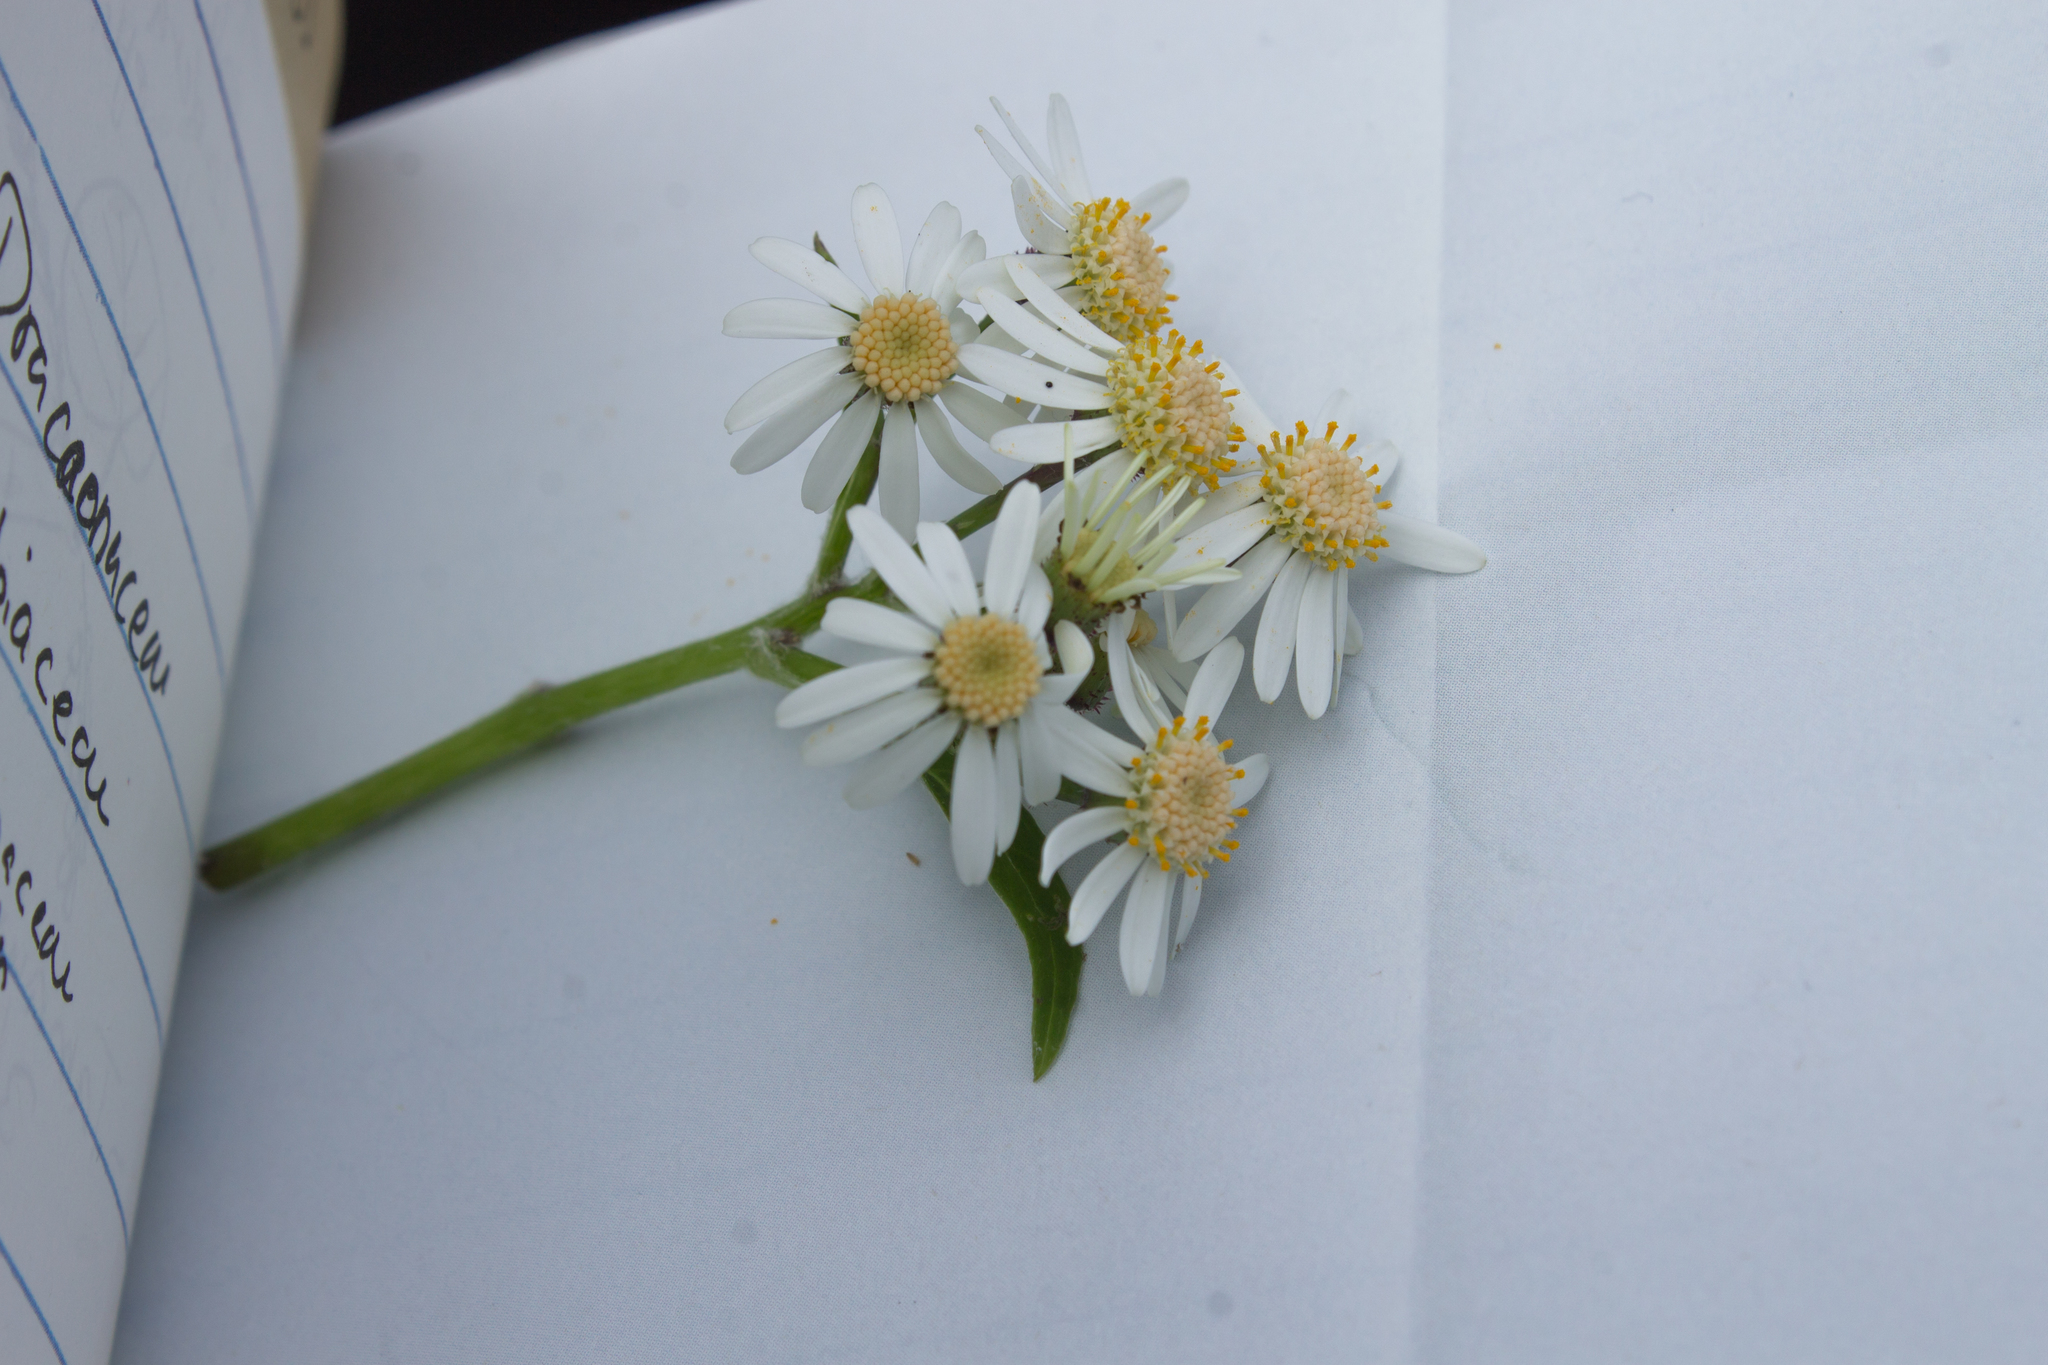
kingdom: Plantae
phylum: Tracheophyta
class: Magnoliopsida
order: Asterales
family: Asteraceae
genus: Pericallis
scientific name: Pericallis echinata
